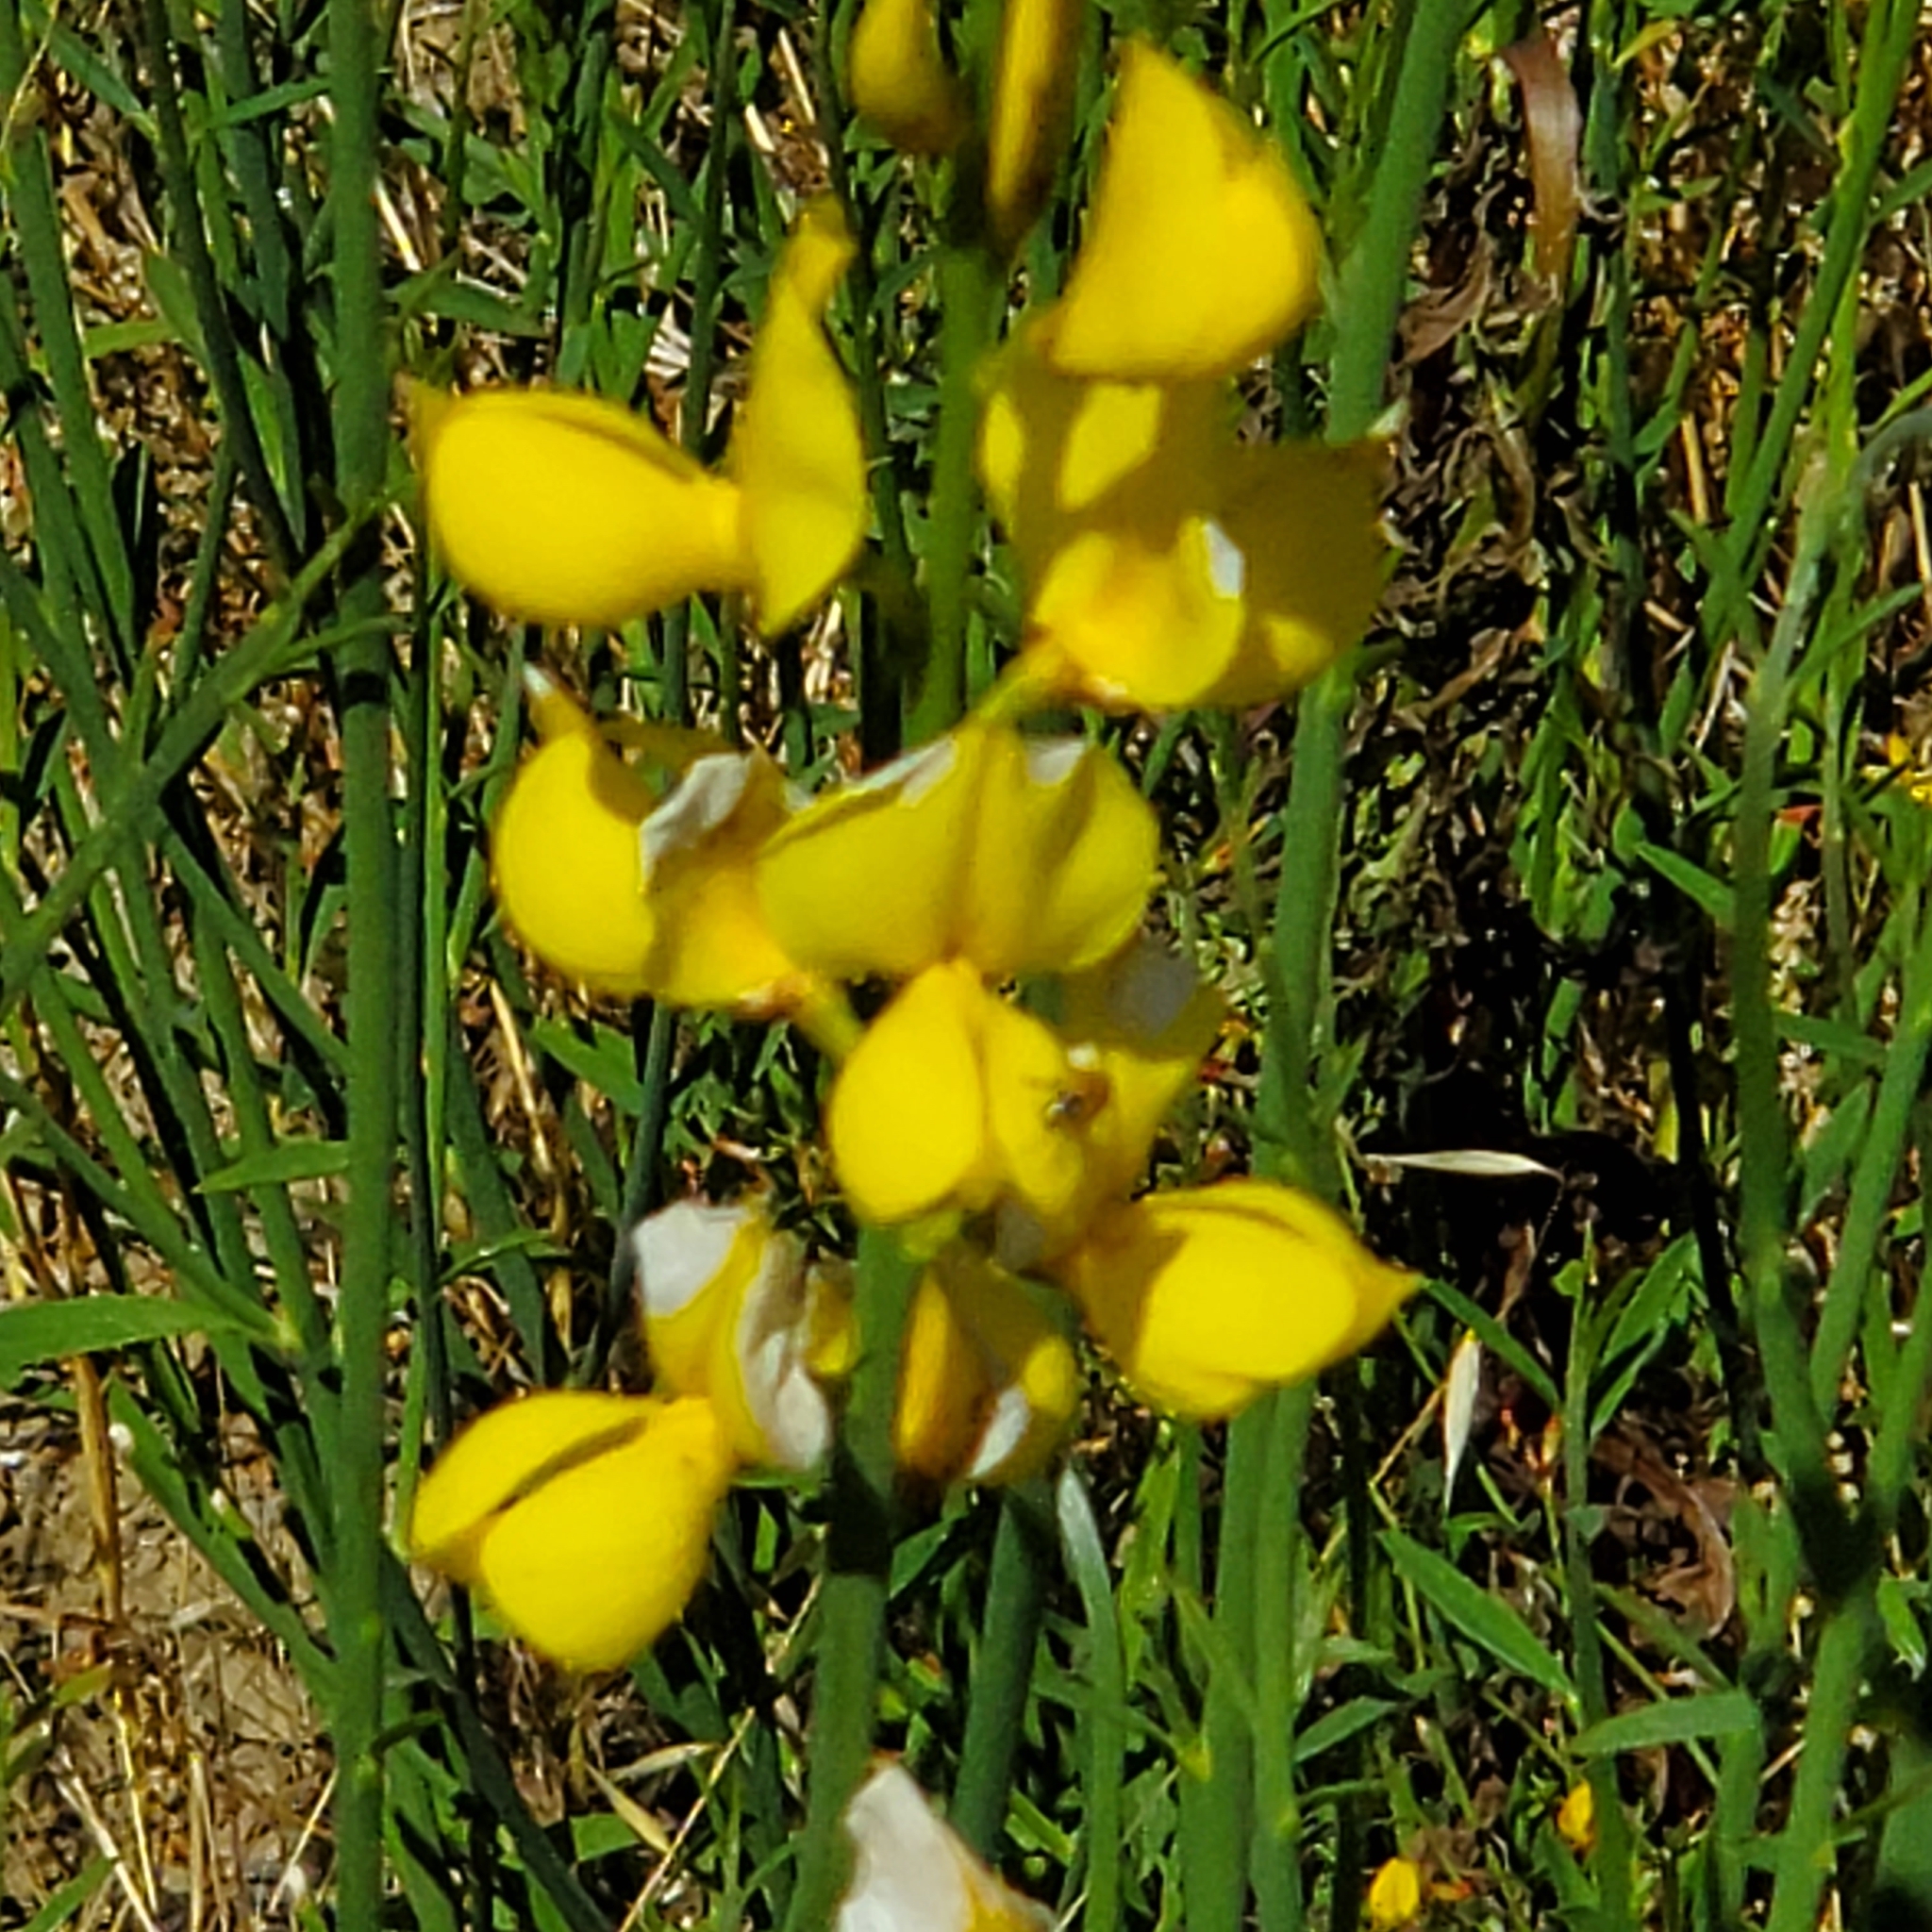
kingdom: Plantae
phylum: Tracheophyta
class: Magnoliopsida
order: Fabales
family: Fabaceae
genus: Spartium
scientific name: Spartium junceum
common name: Spanish broom
